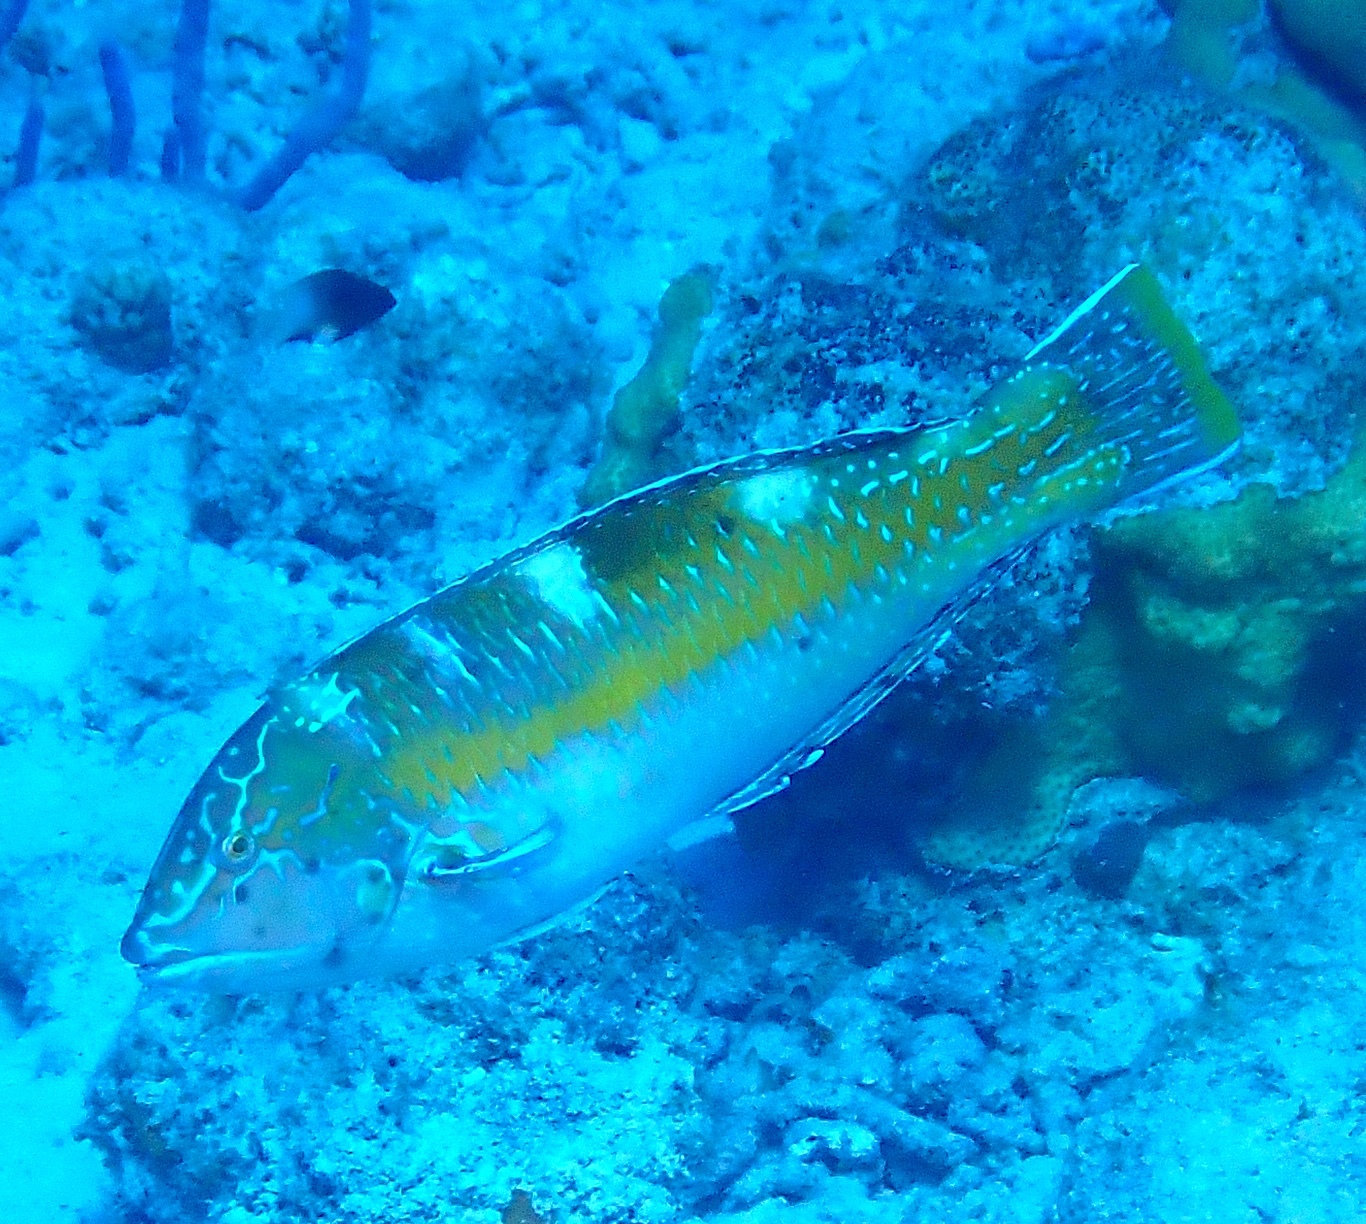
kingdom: Animalia
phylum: Chordata
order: Perciformes
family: Labridae
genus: Halichoeres
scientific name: Halichoeres radiatus
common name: Puddingwife
